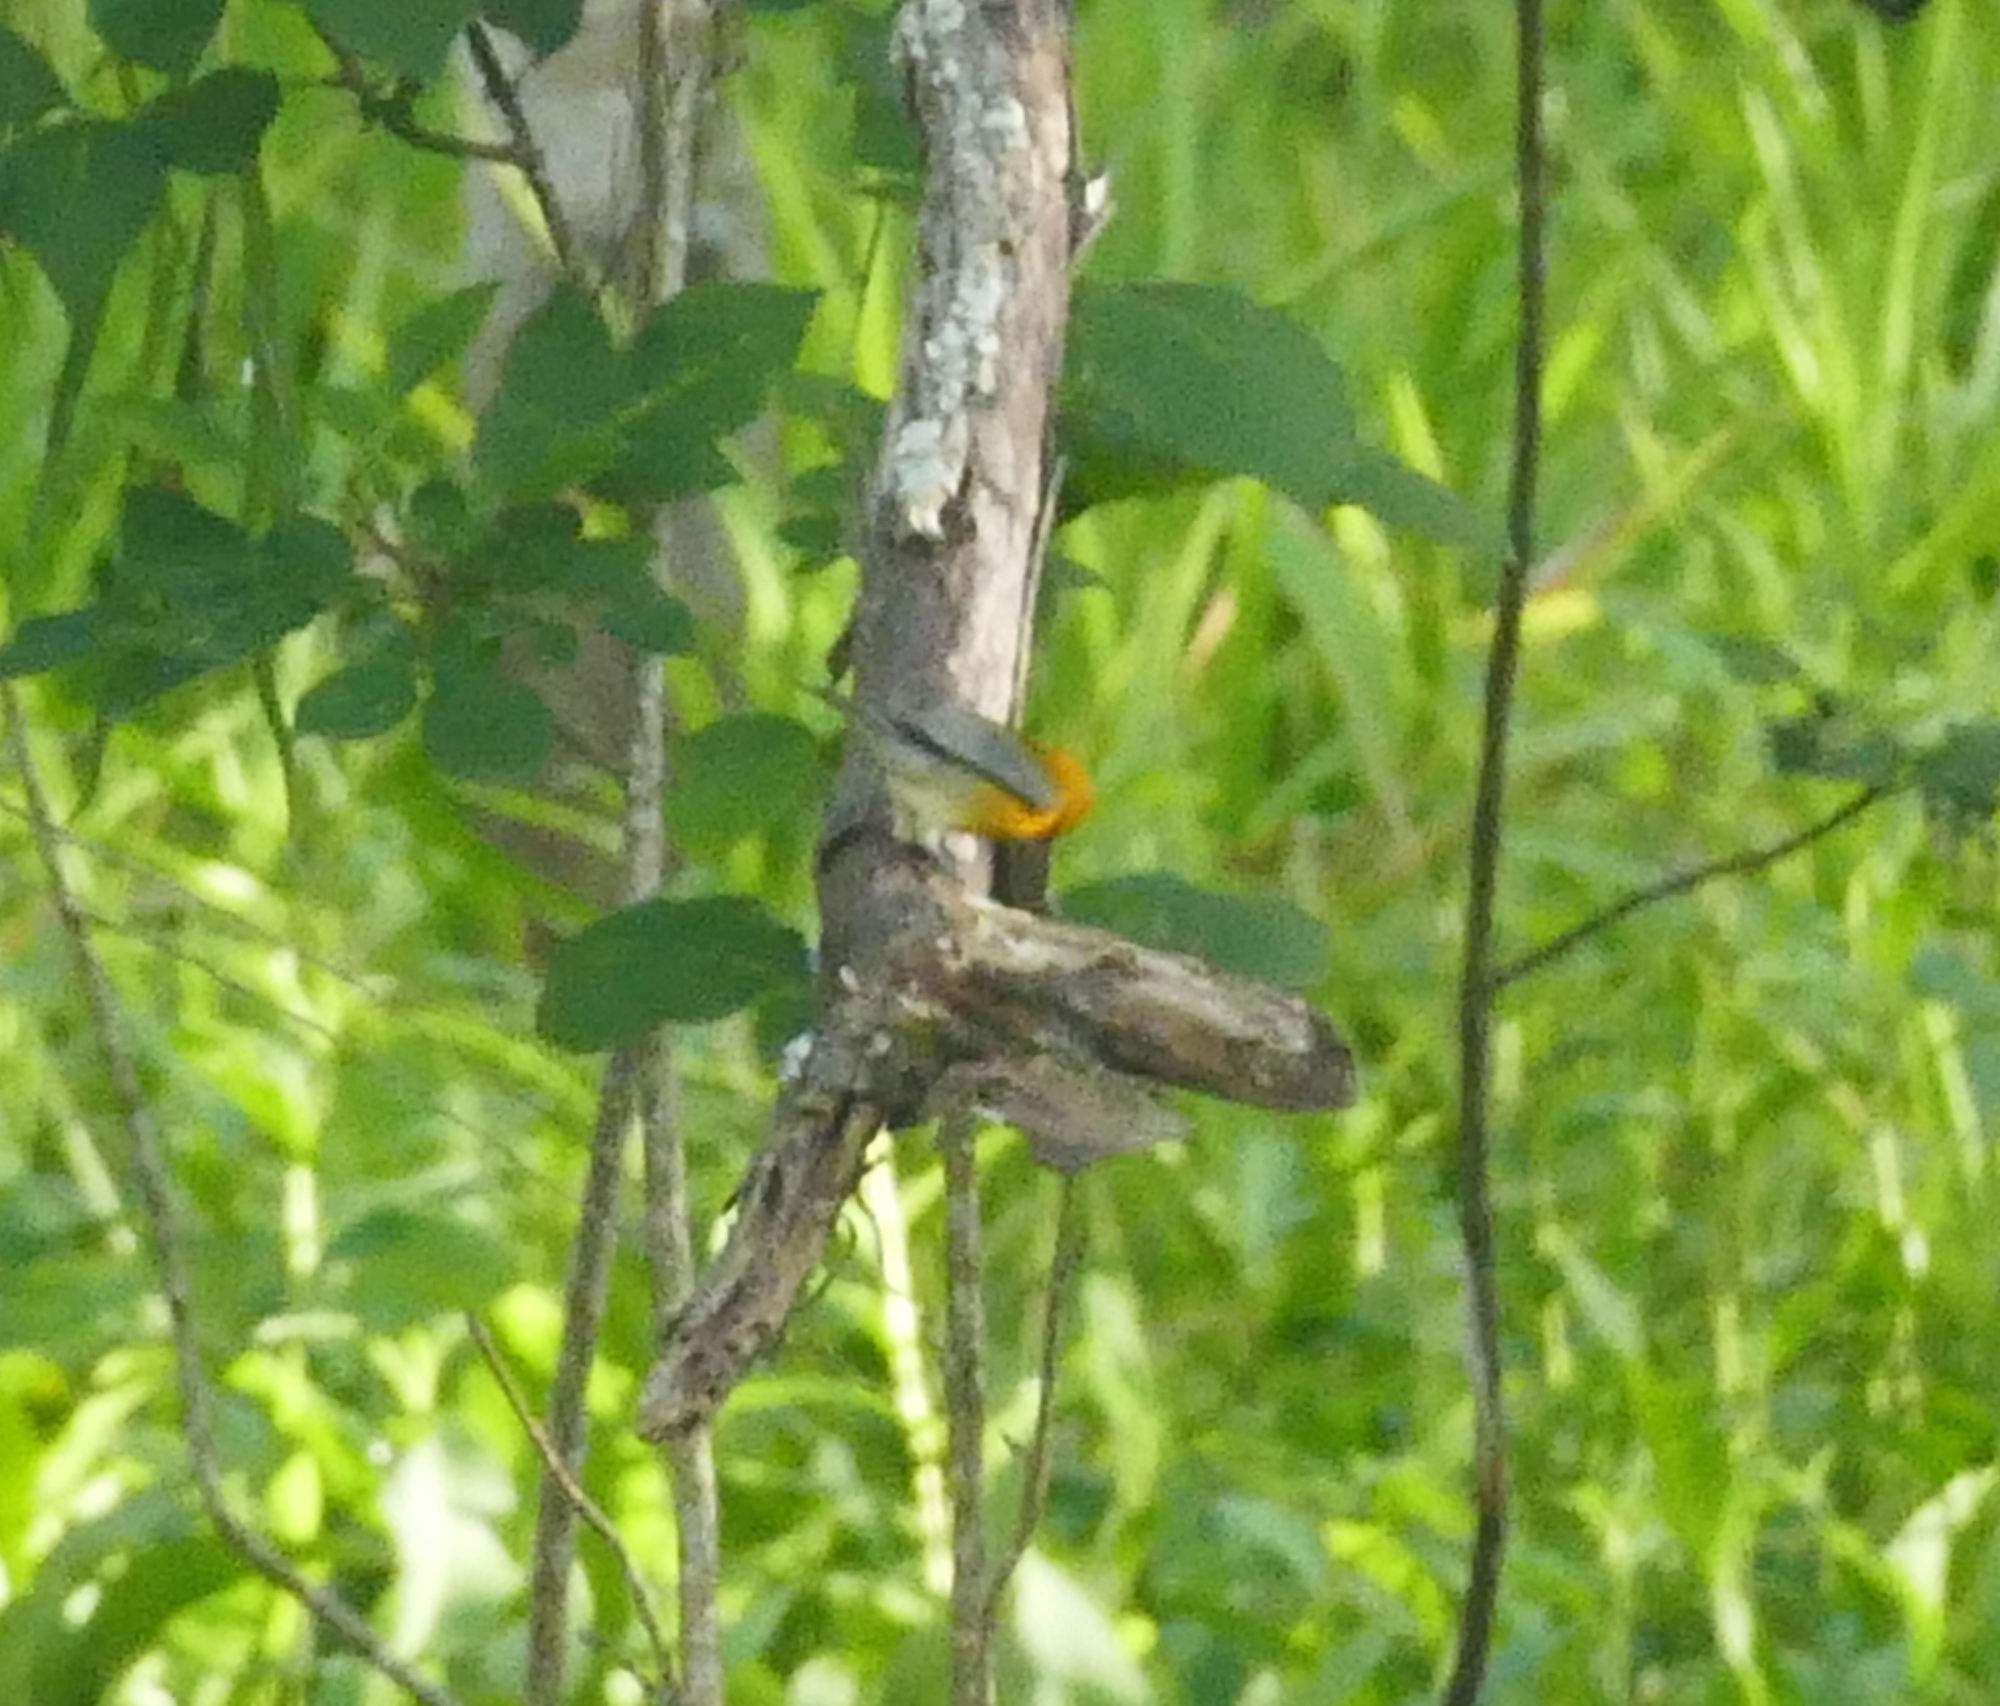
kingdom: Animalia
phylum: Chordata
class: Aves
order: Passeriformes
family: Parulidae
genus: Protonotaria
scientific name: Protonotaria citrea
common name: Prothonotary warbler
